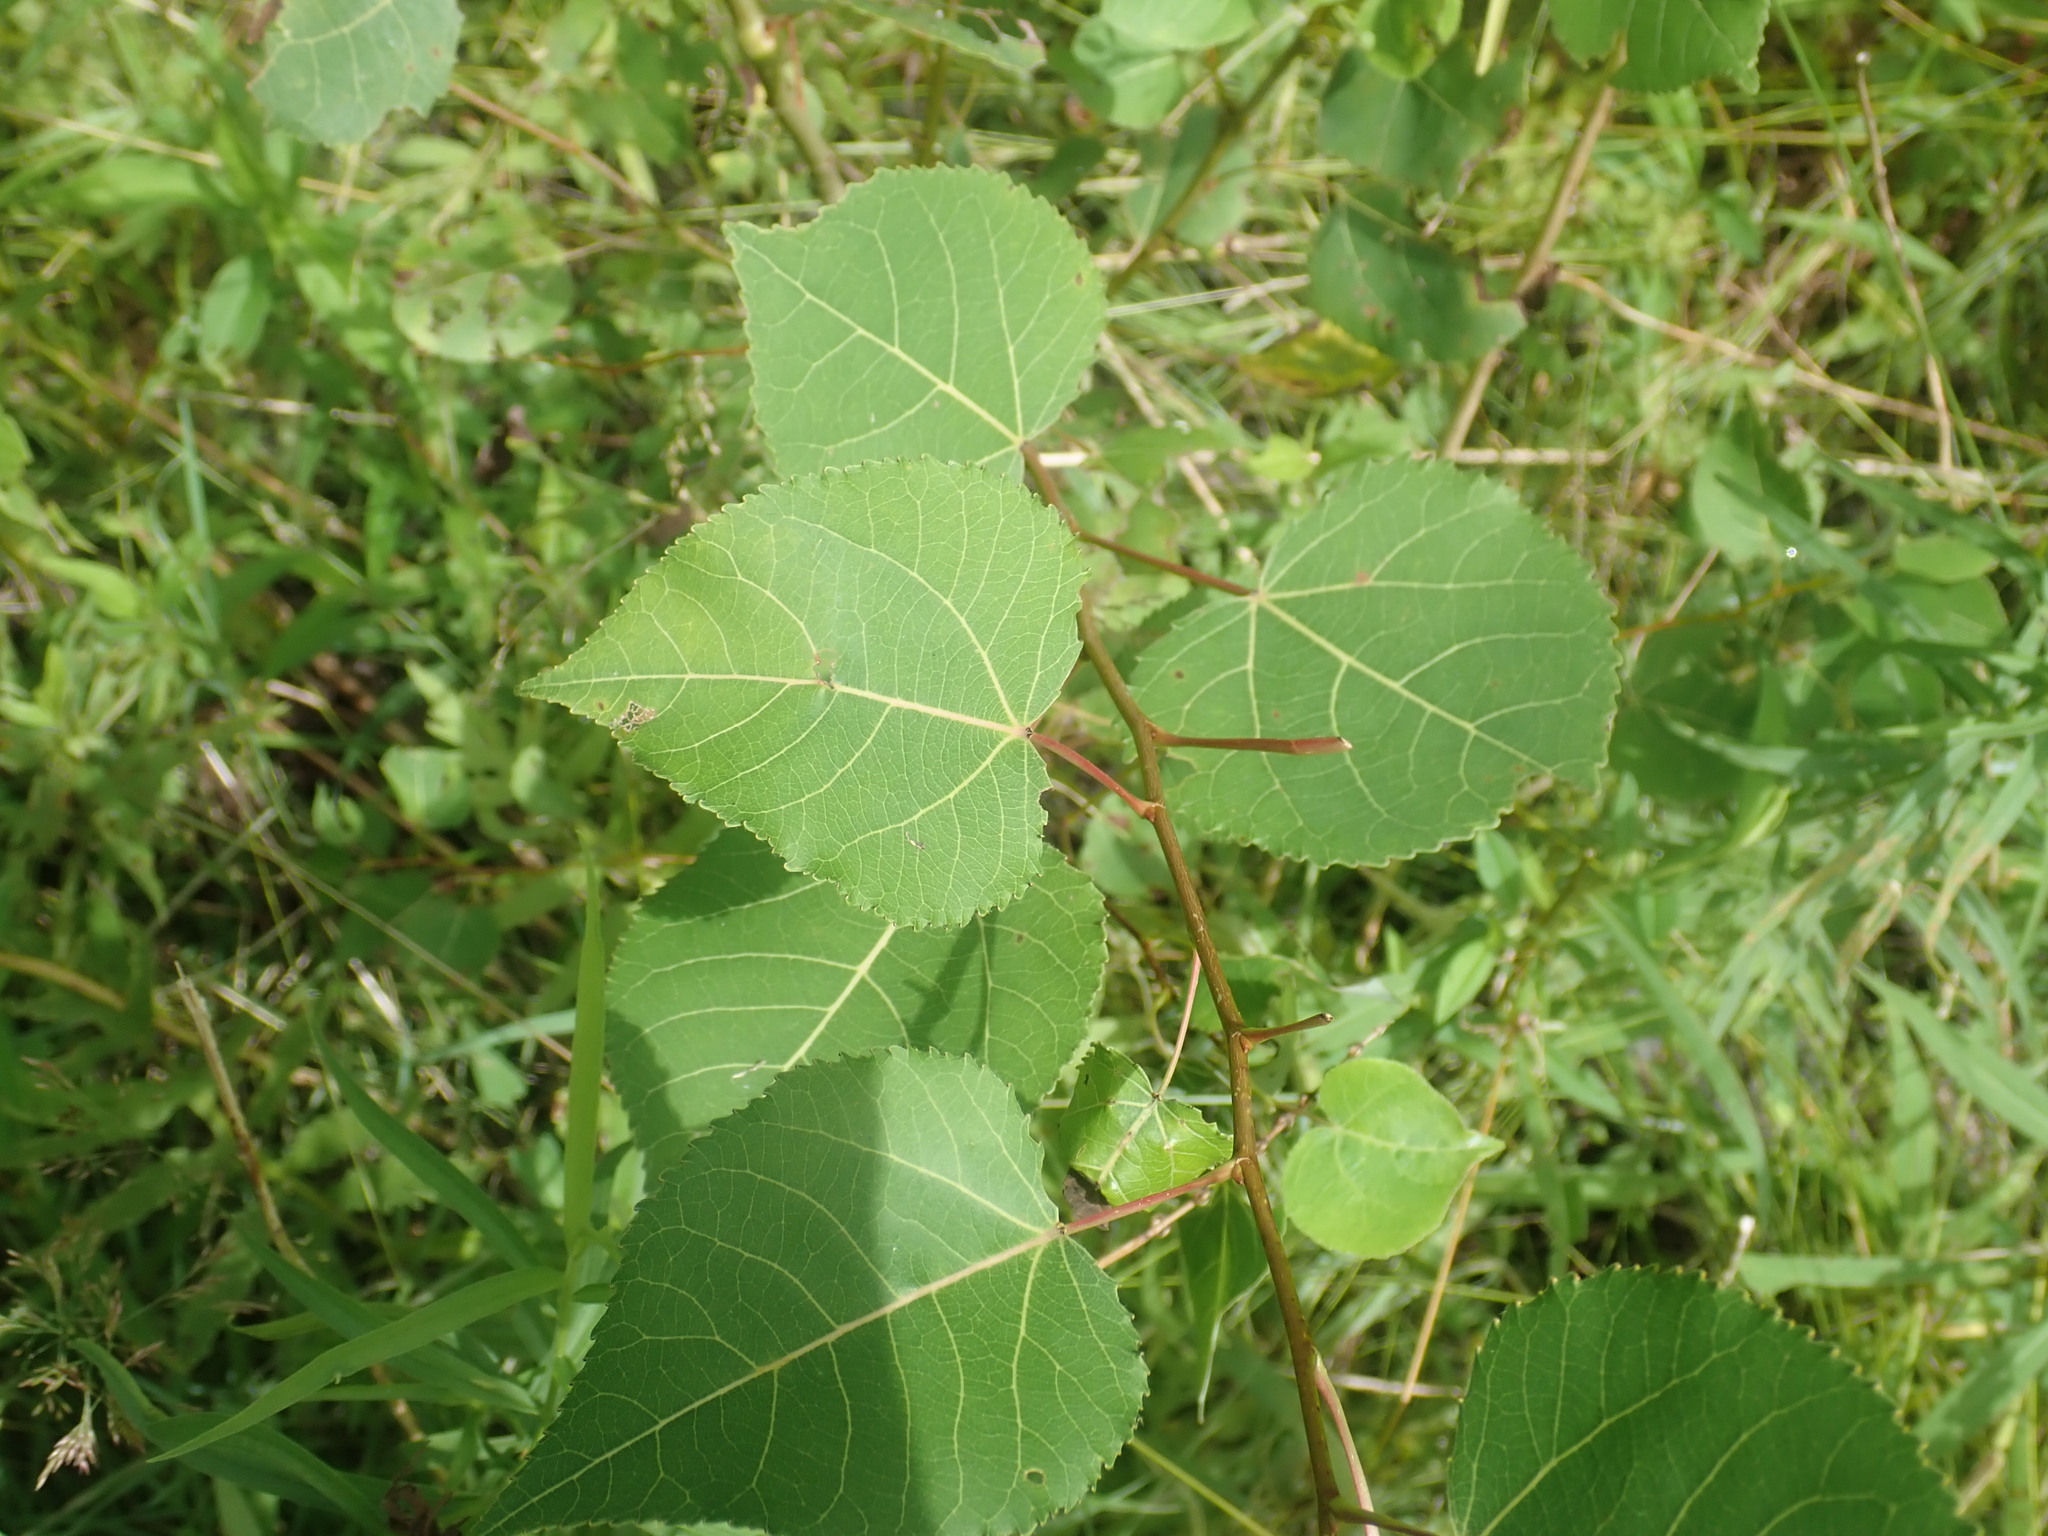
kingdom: Plantae
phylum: Tracheophyta
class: Magnoliopsida
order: Malpighiales
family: Salicaceae
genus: Populus
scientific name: Populus tremuloides
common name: Quaking aspen
